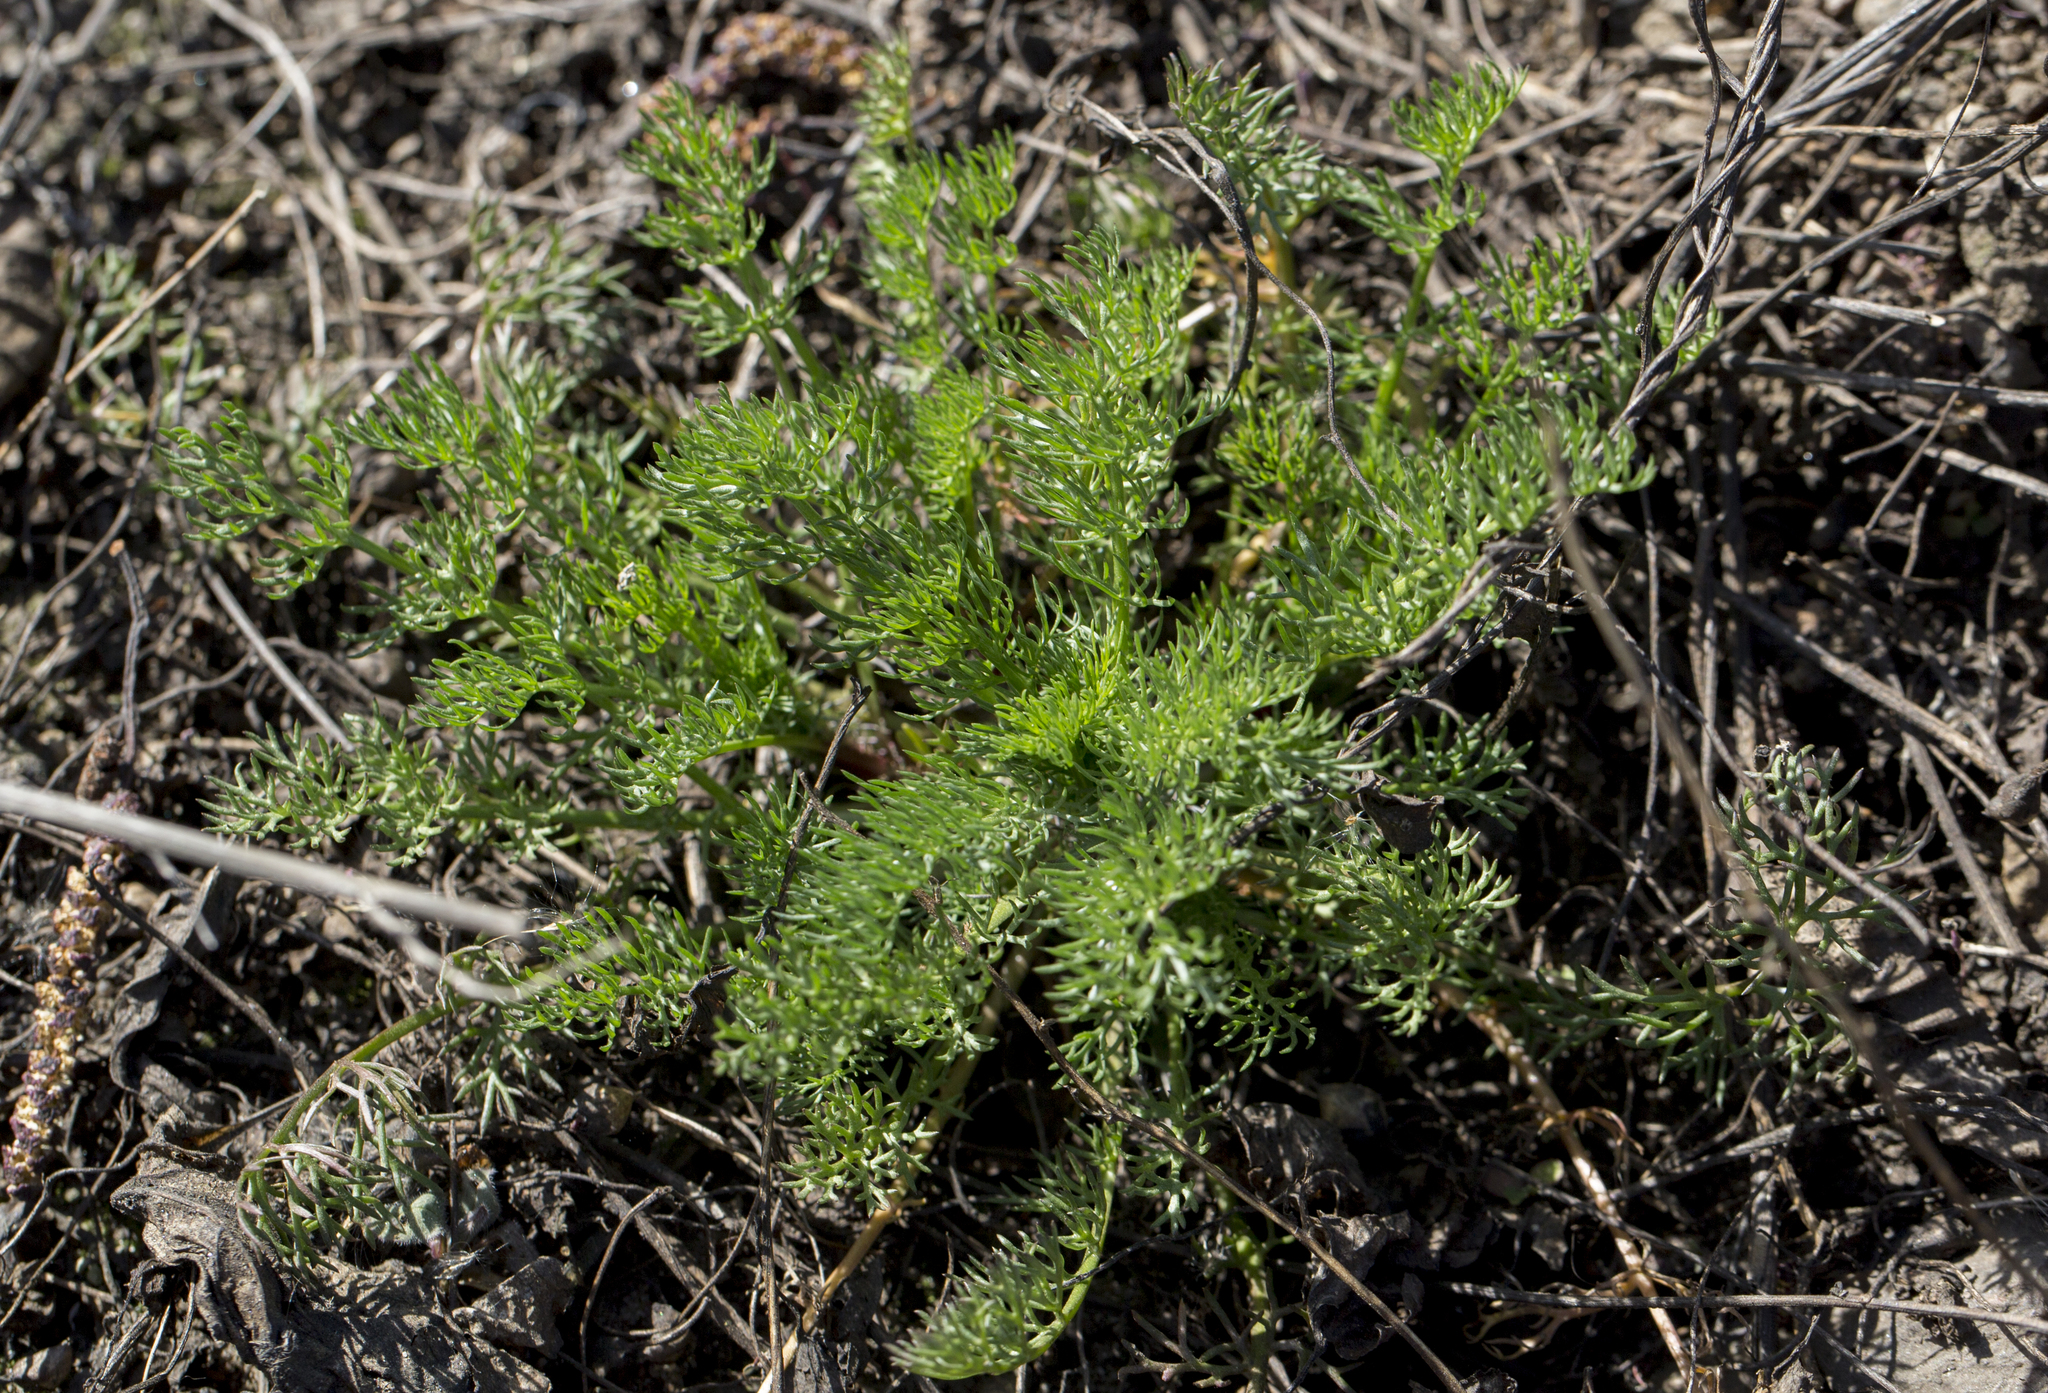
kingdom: Plantae
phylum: Tracheophyta
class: Magnoliopsida
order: Asterales
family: Asteraceae
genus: Tripleurospermum
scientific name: Tripleurospermum inodorum
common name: Scentless mayweed
